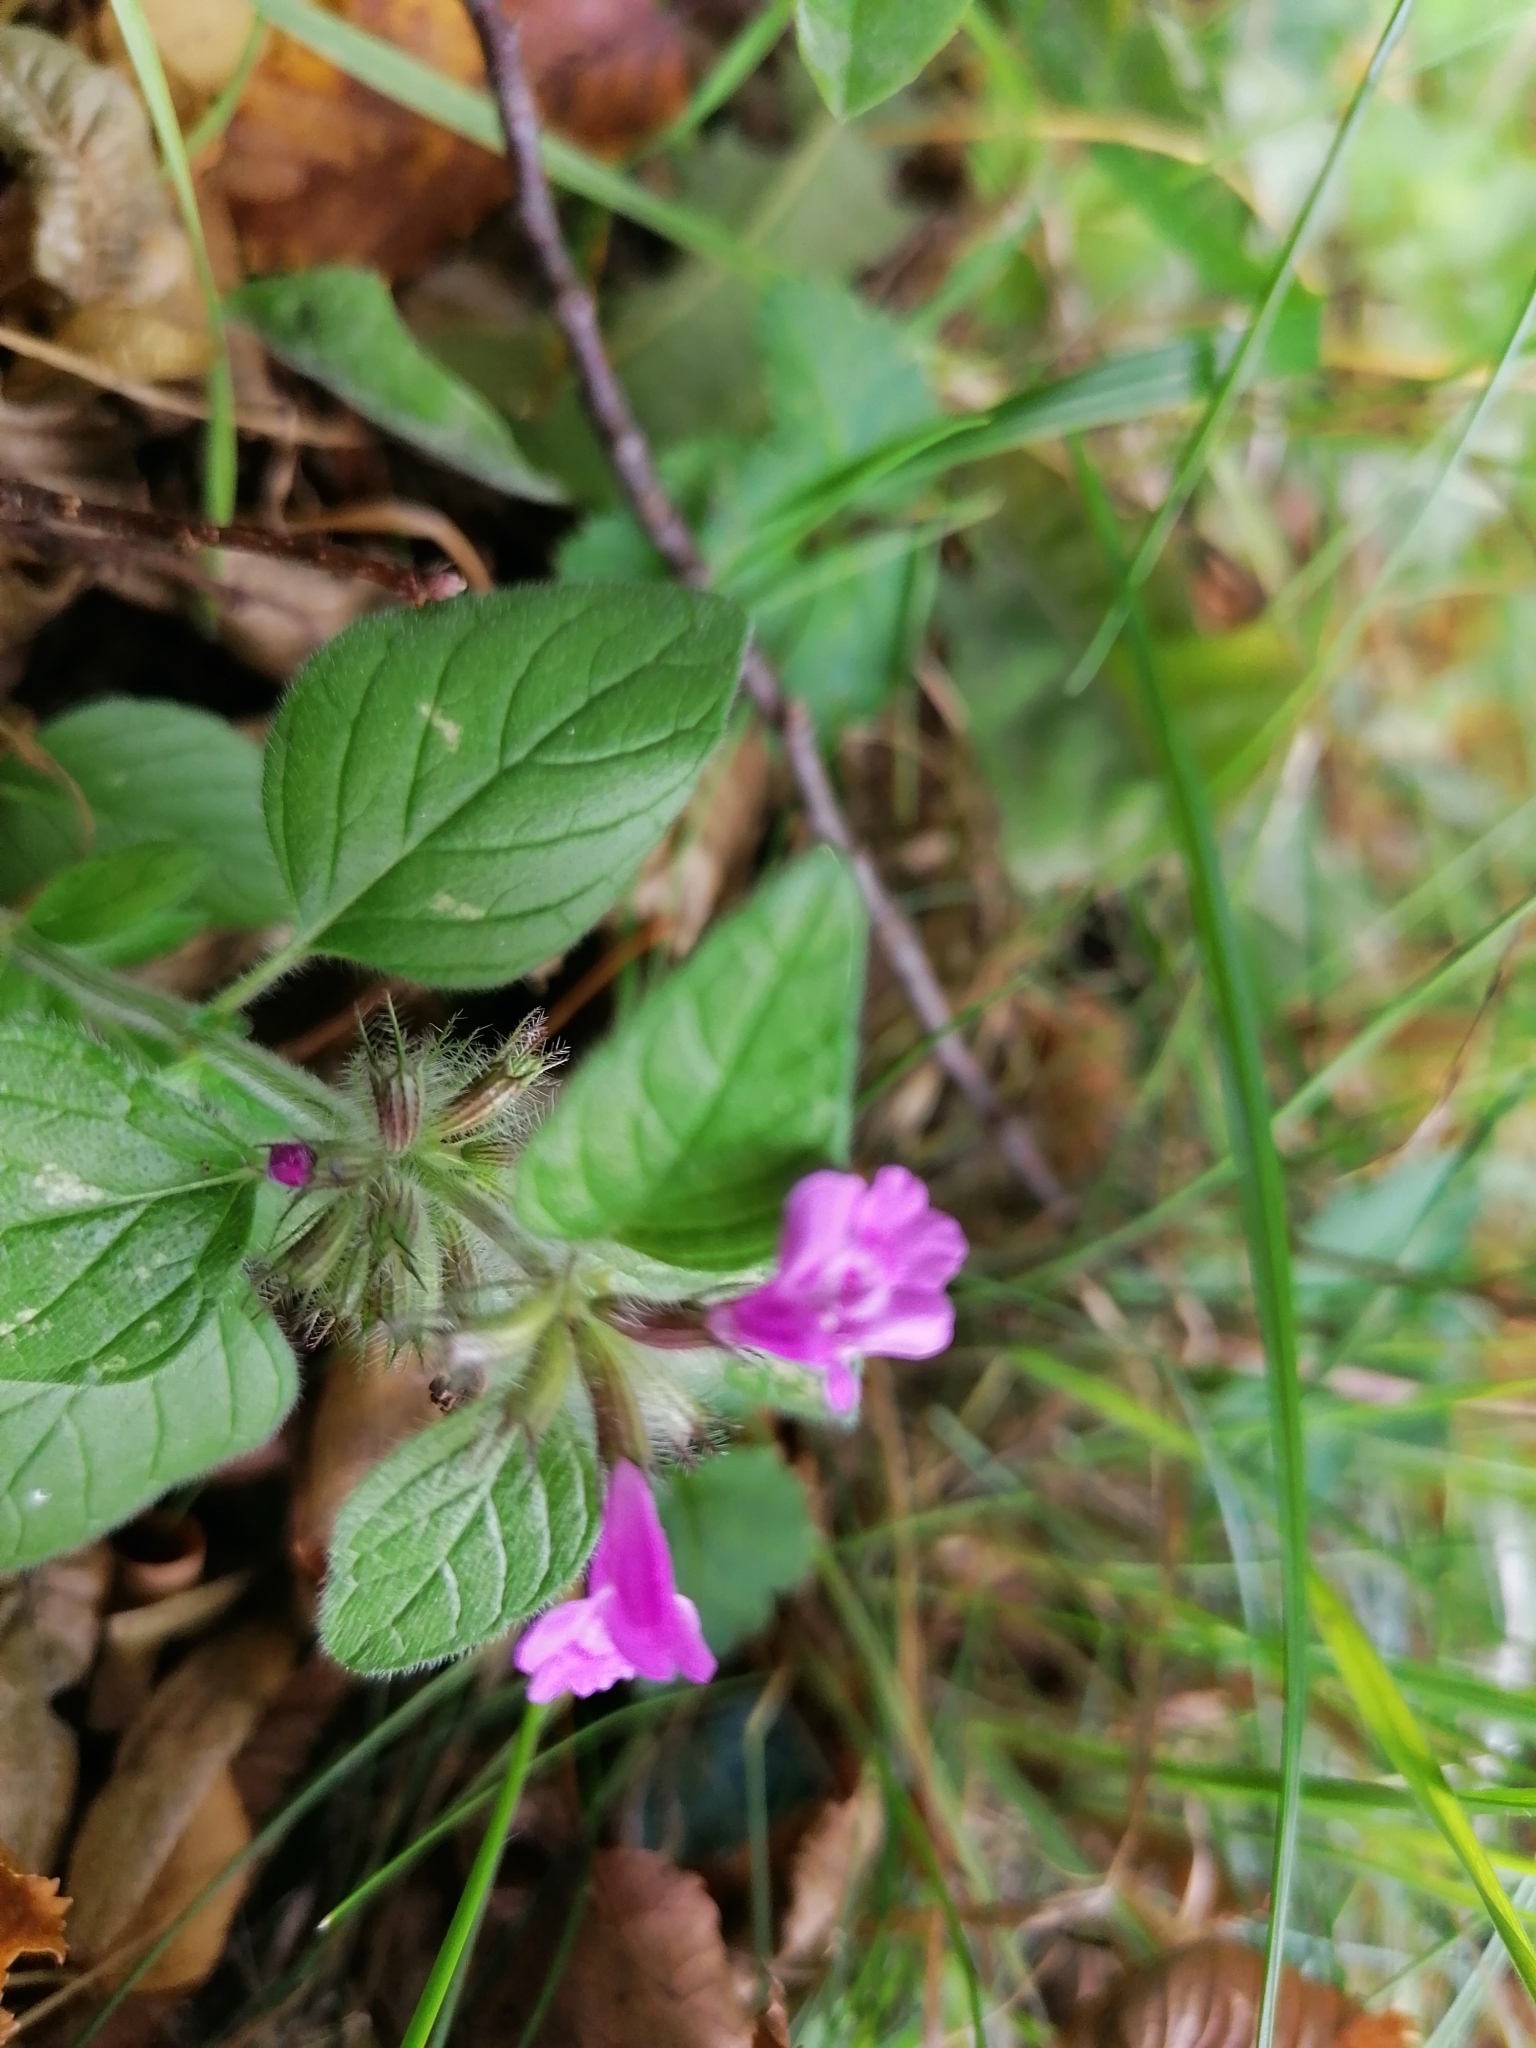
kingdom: Plantae
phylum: Tracheophyta
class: Magnoliopsida
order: Lamiales
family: Lamiaceae
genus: Clinopodium
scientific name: Clinopodium vulgare
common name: Wild basil
